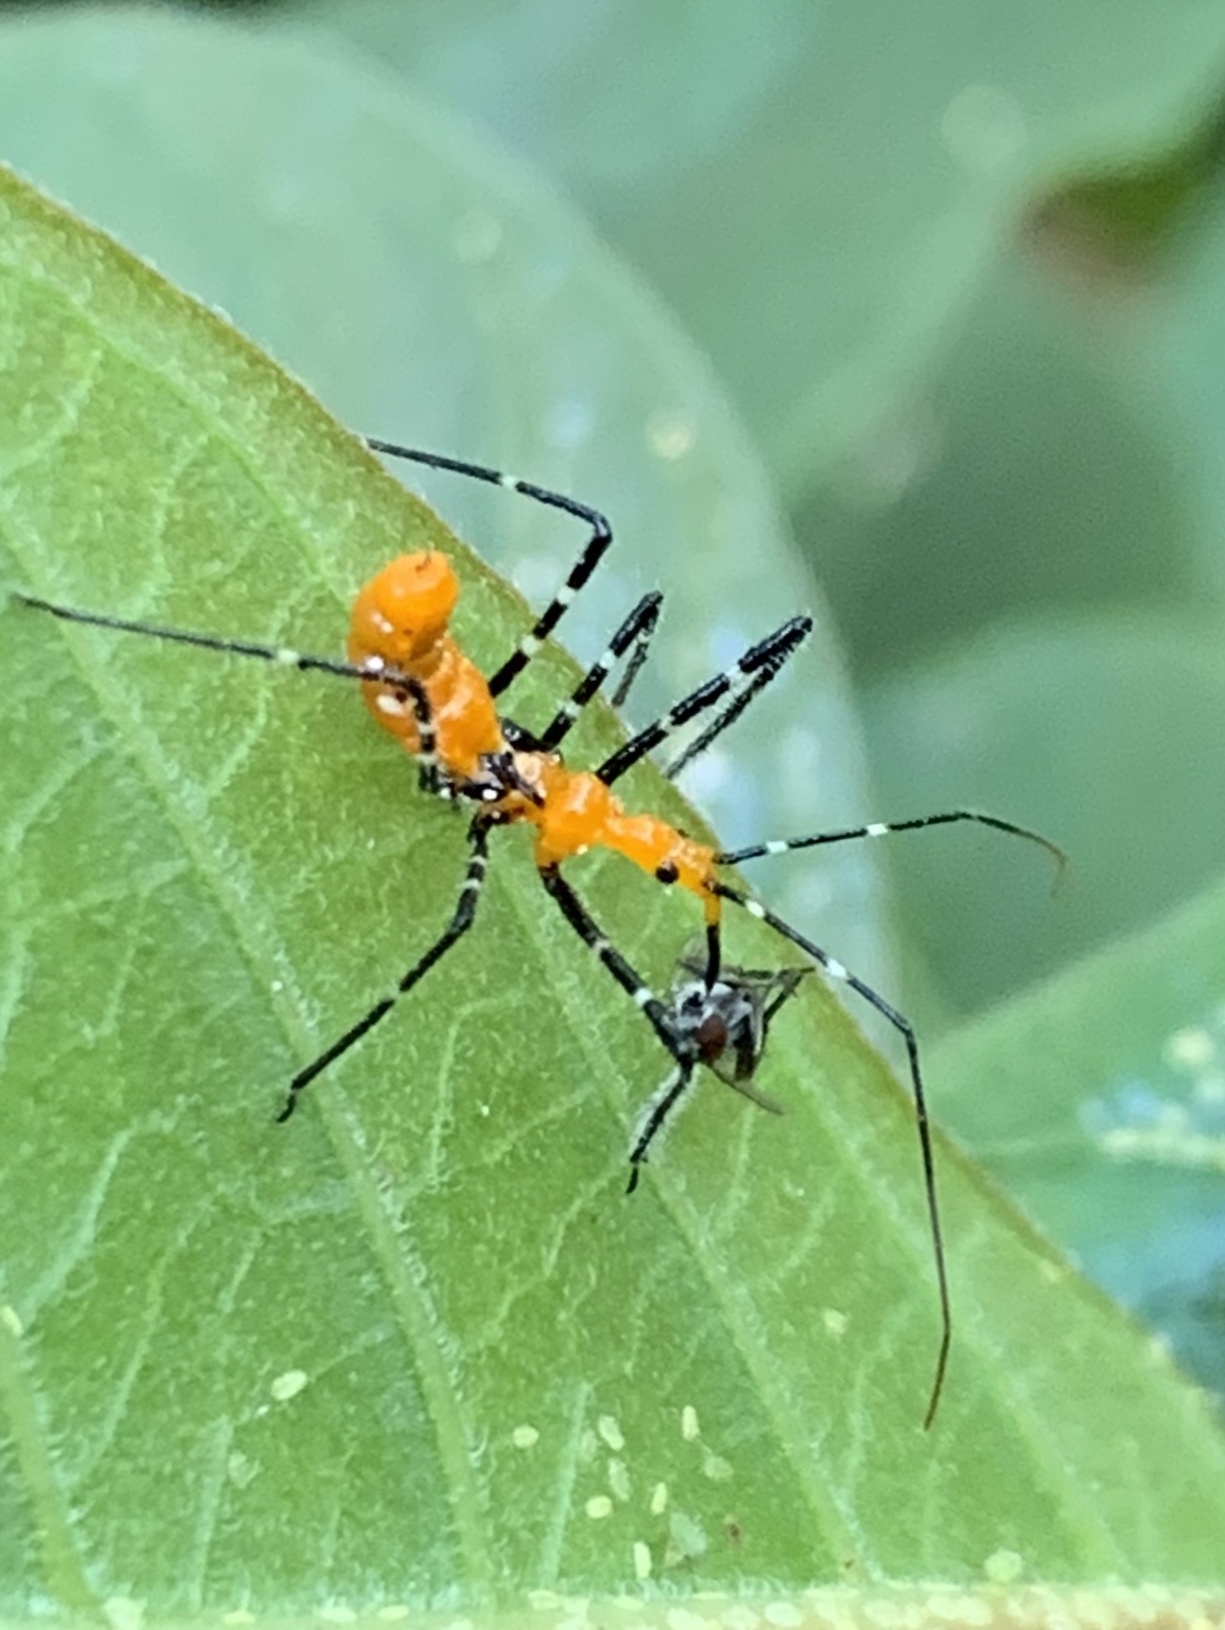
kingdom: Animalia
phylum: Arthropoda
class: Insecta
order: Hemiptera
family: Reduviidae
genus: Zelus
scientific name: Zelus longipes
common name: Milkweed assassin bug
